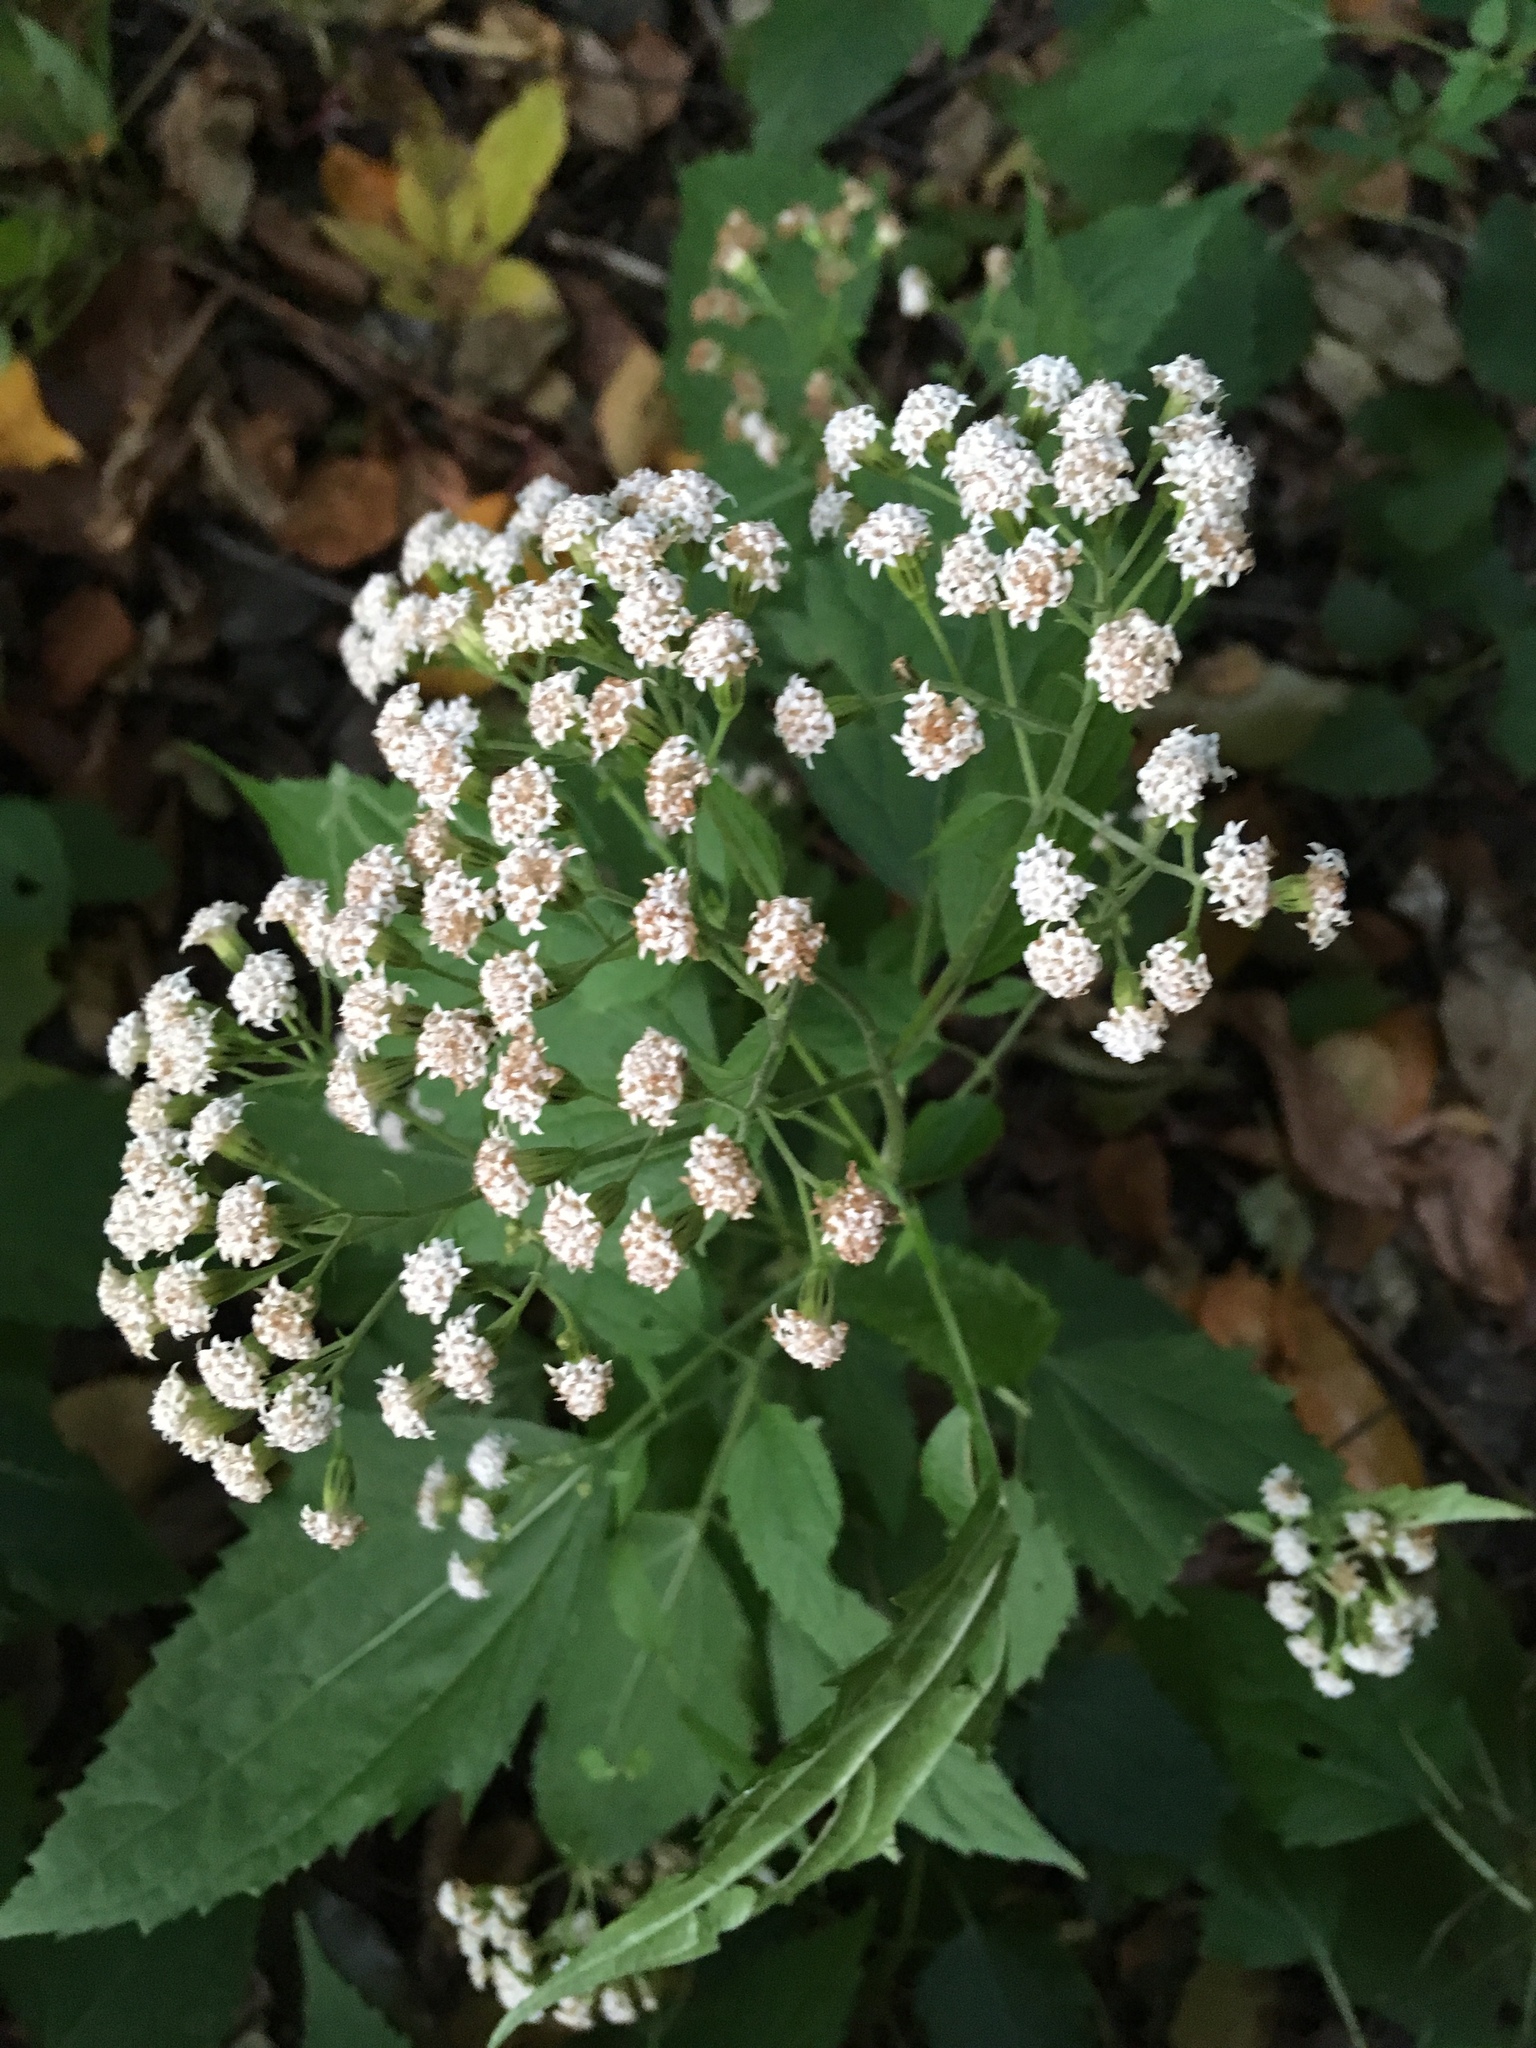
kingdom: Plantae
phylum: Tracheophyta
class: Magnoliopsida
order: Asterales
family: Asteraceae
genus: Ageratina
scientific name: Ageratina altissima
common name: White snakeroot
